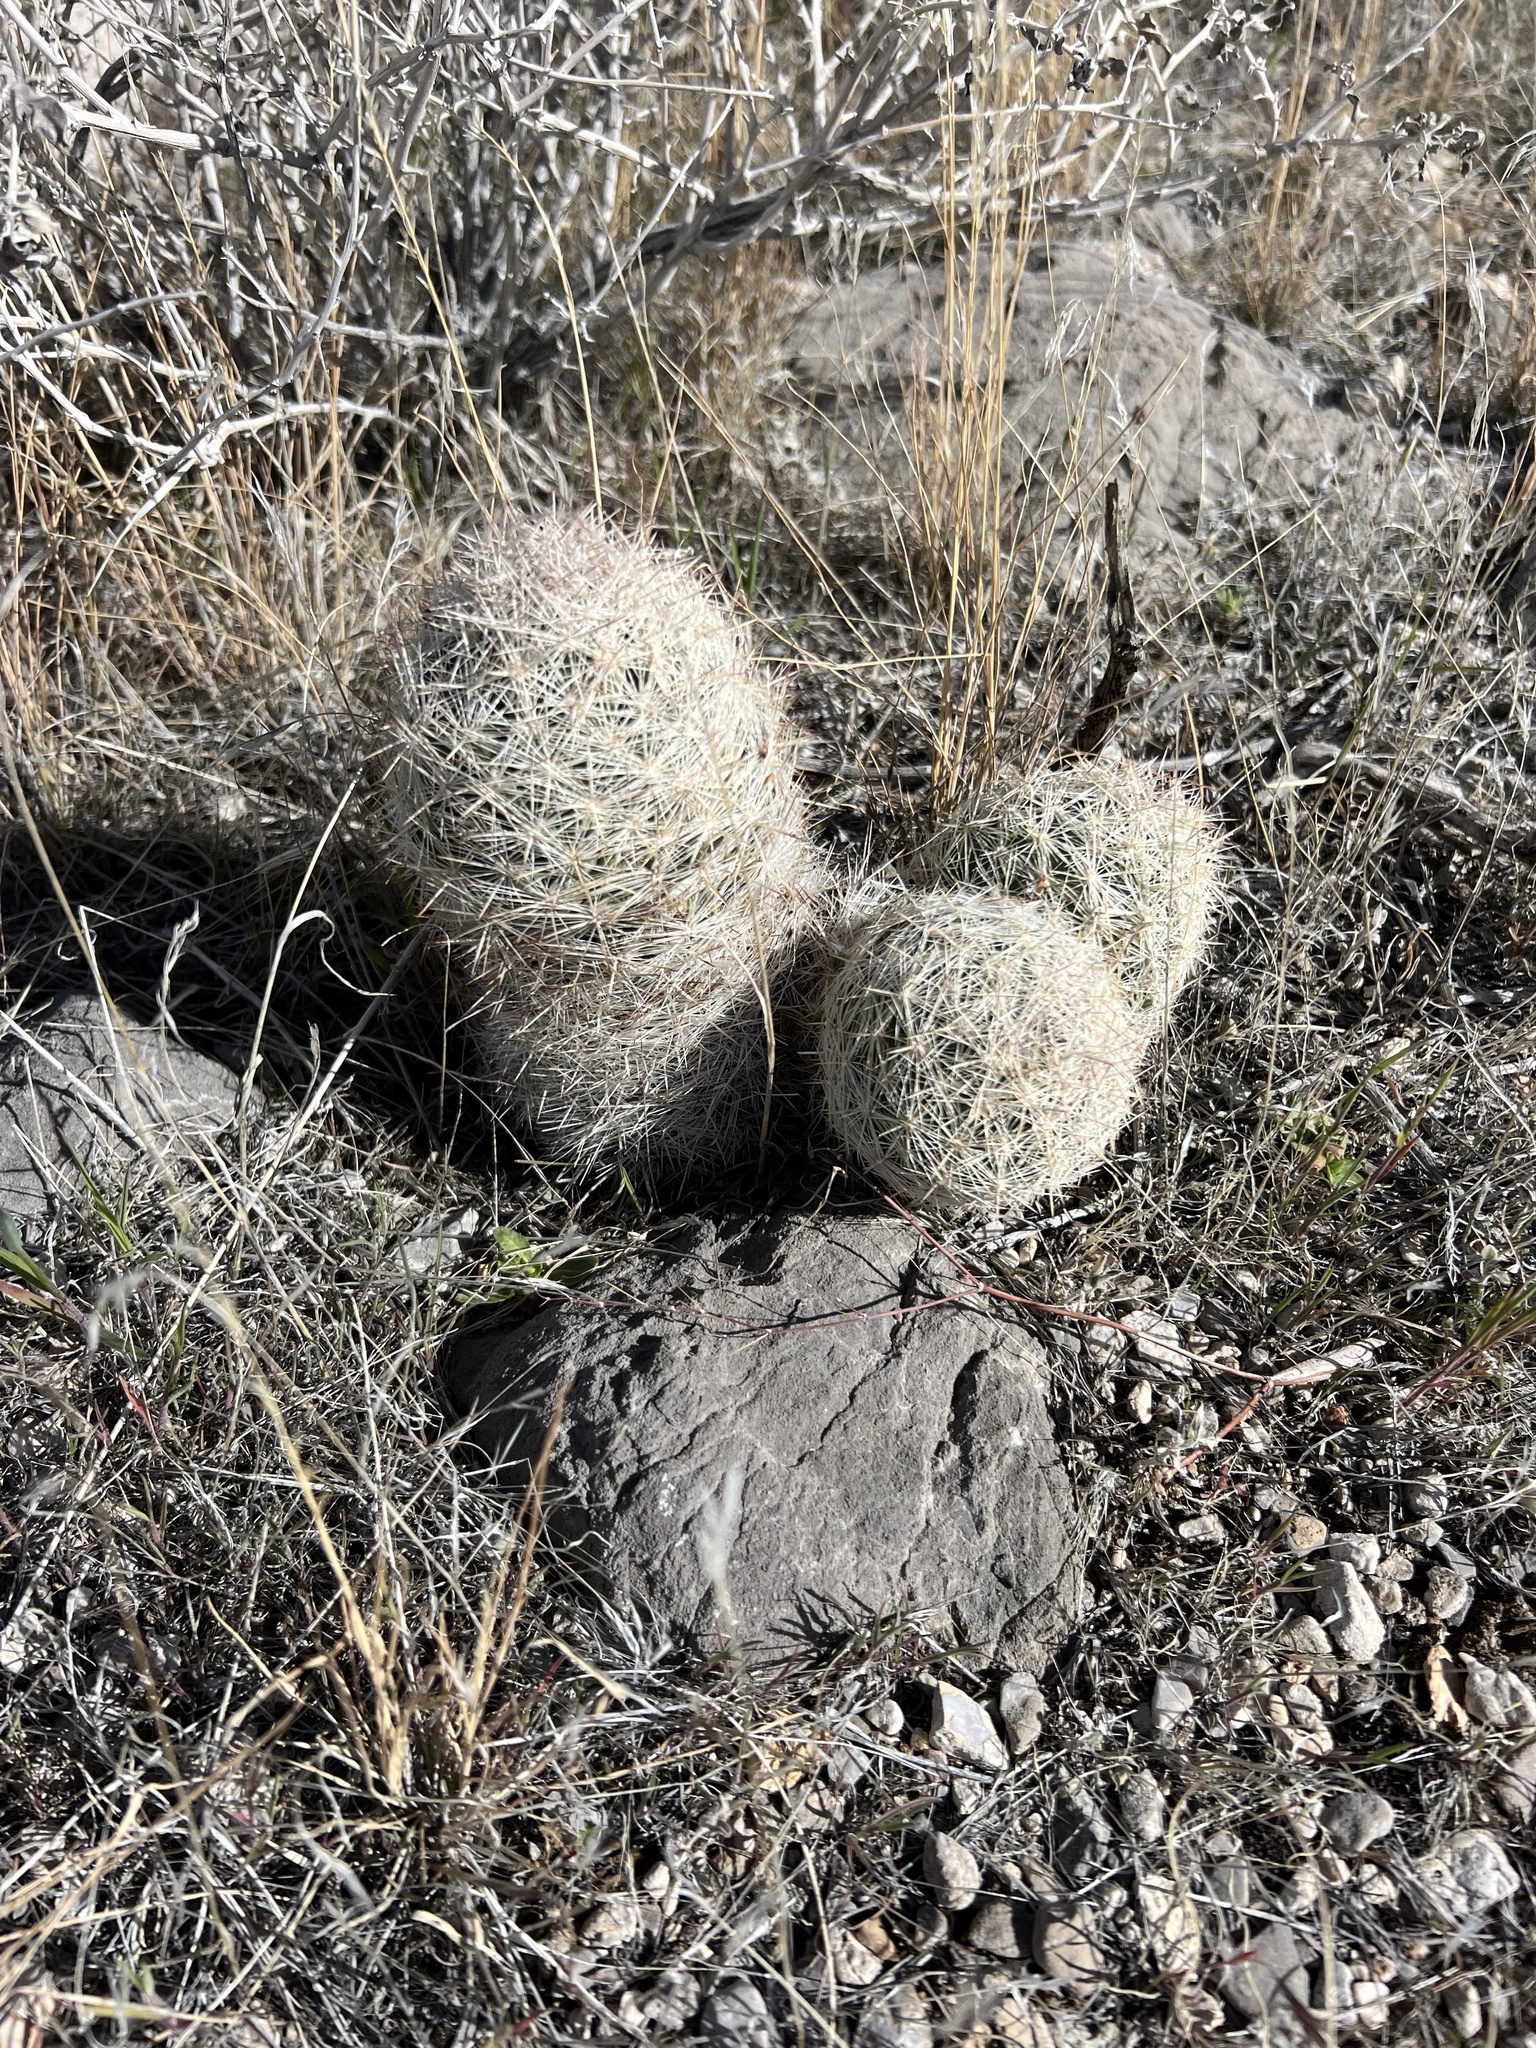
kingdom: Plantae
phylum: Tracheophyta
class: Magnoliopsida
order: Caryophyllales
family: Cactaceae
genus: Pelecyphora
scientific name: Pelecyphora dasyacantha
